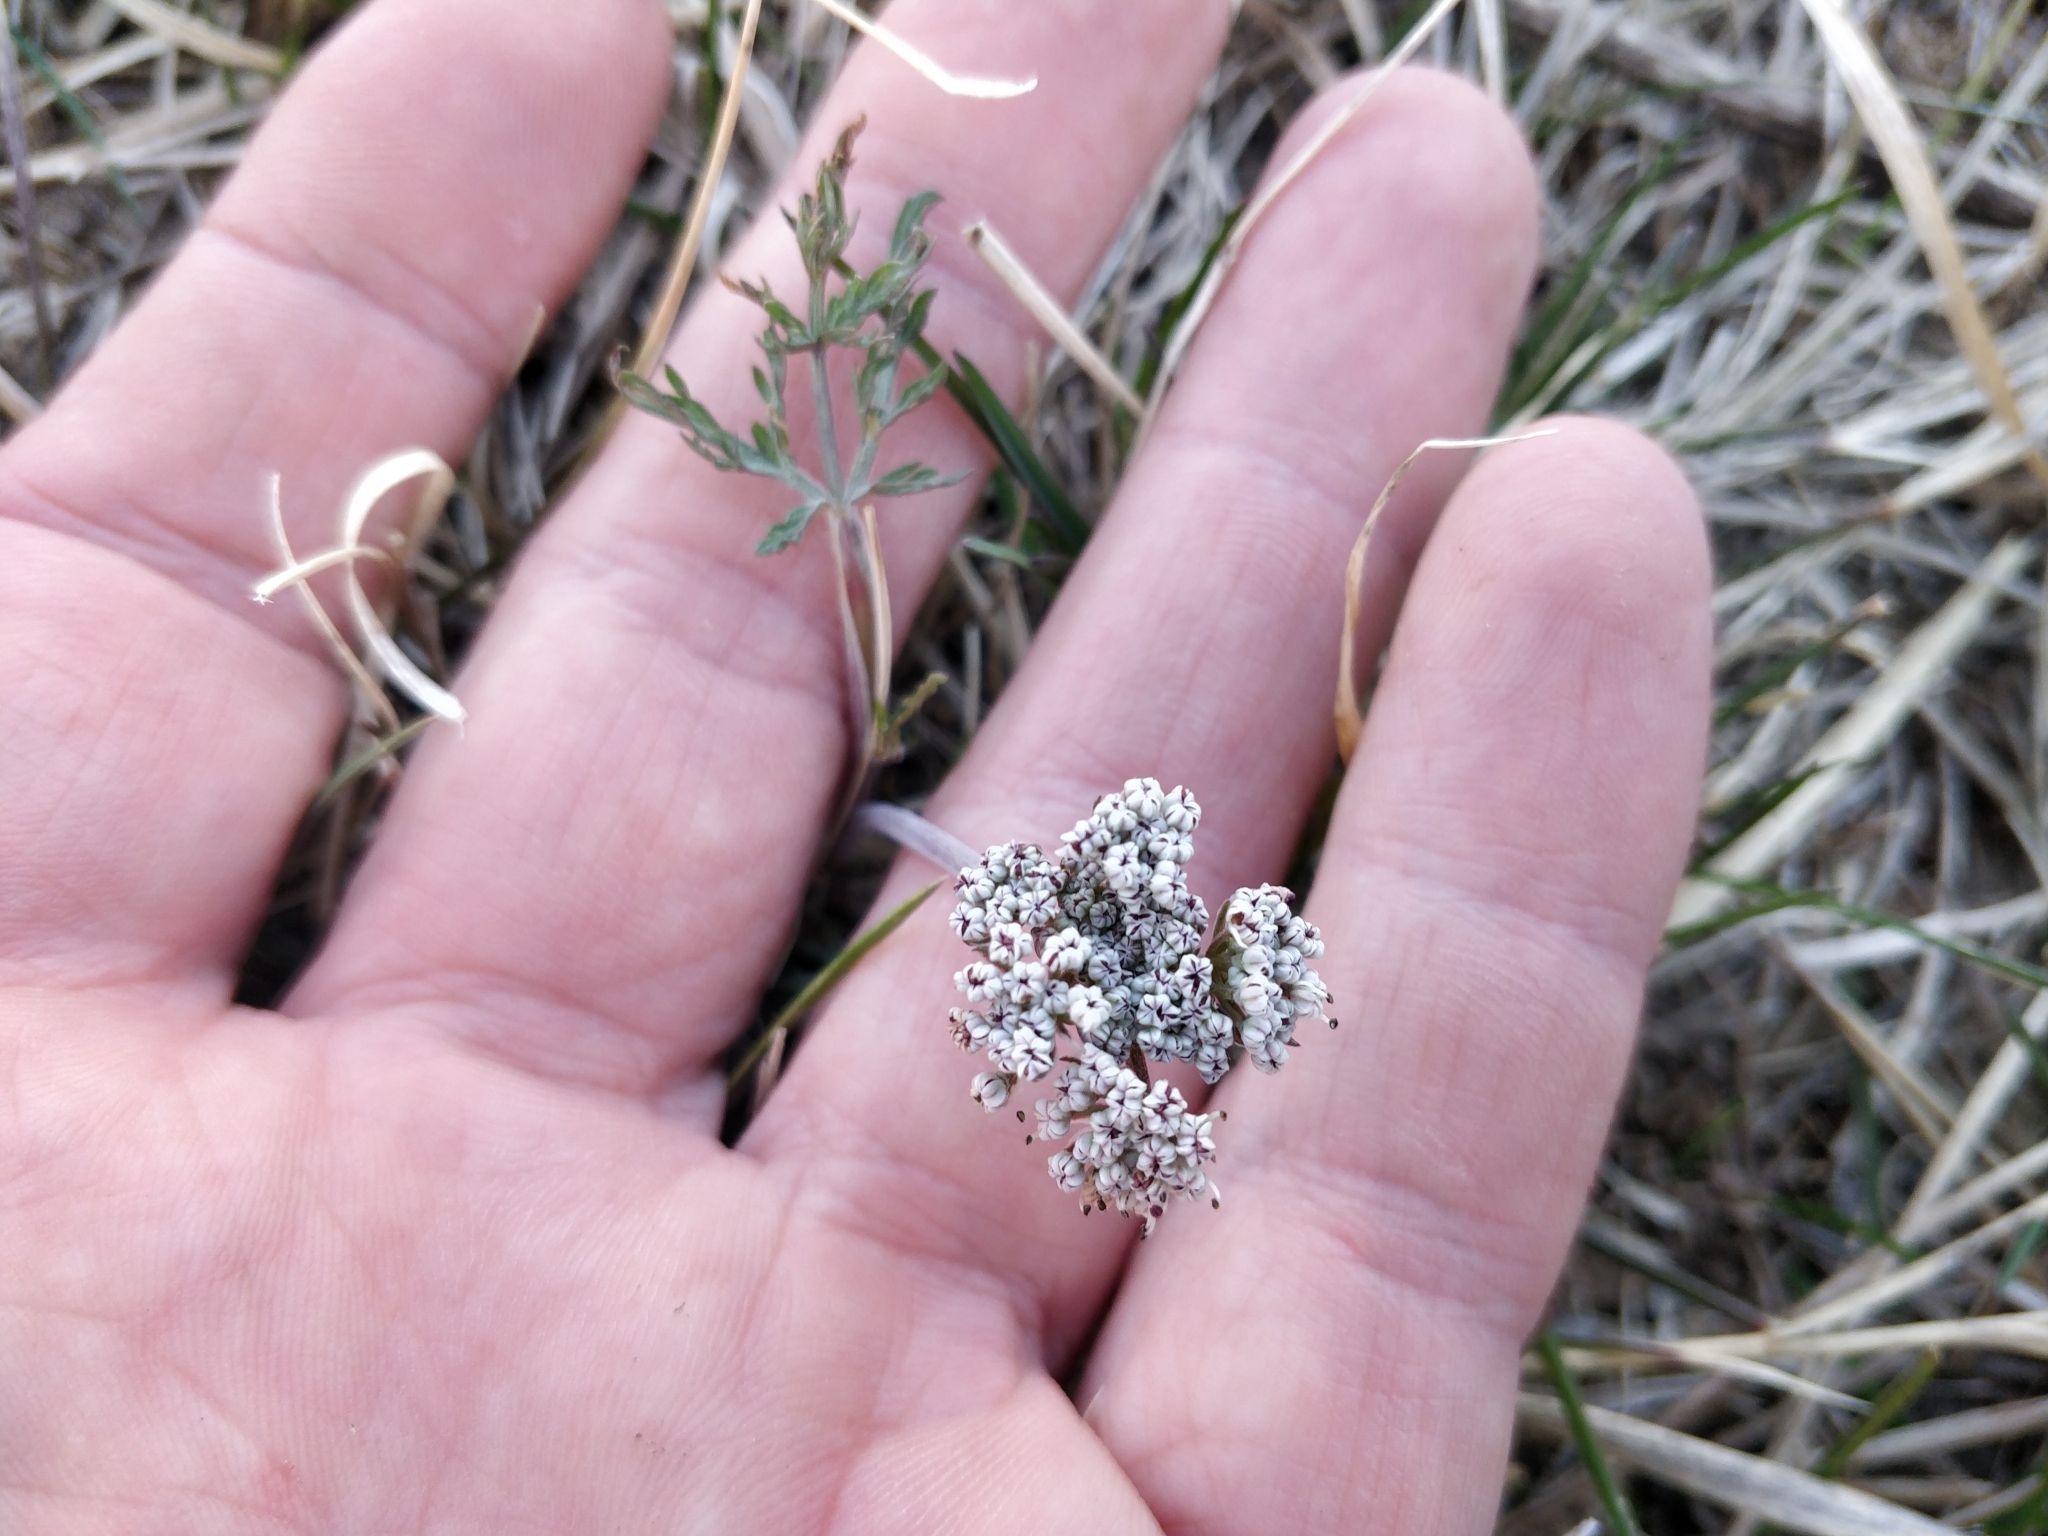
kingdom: Plantae
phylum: Tracheophyta
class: Magnoliopsida
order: Apiales
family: Apiaceae
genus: Lomatium
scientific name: Lomatium orientale
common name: Eastern cous
